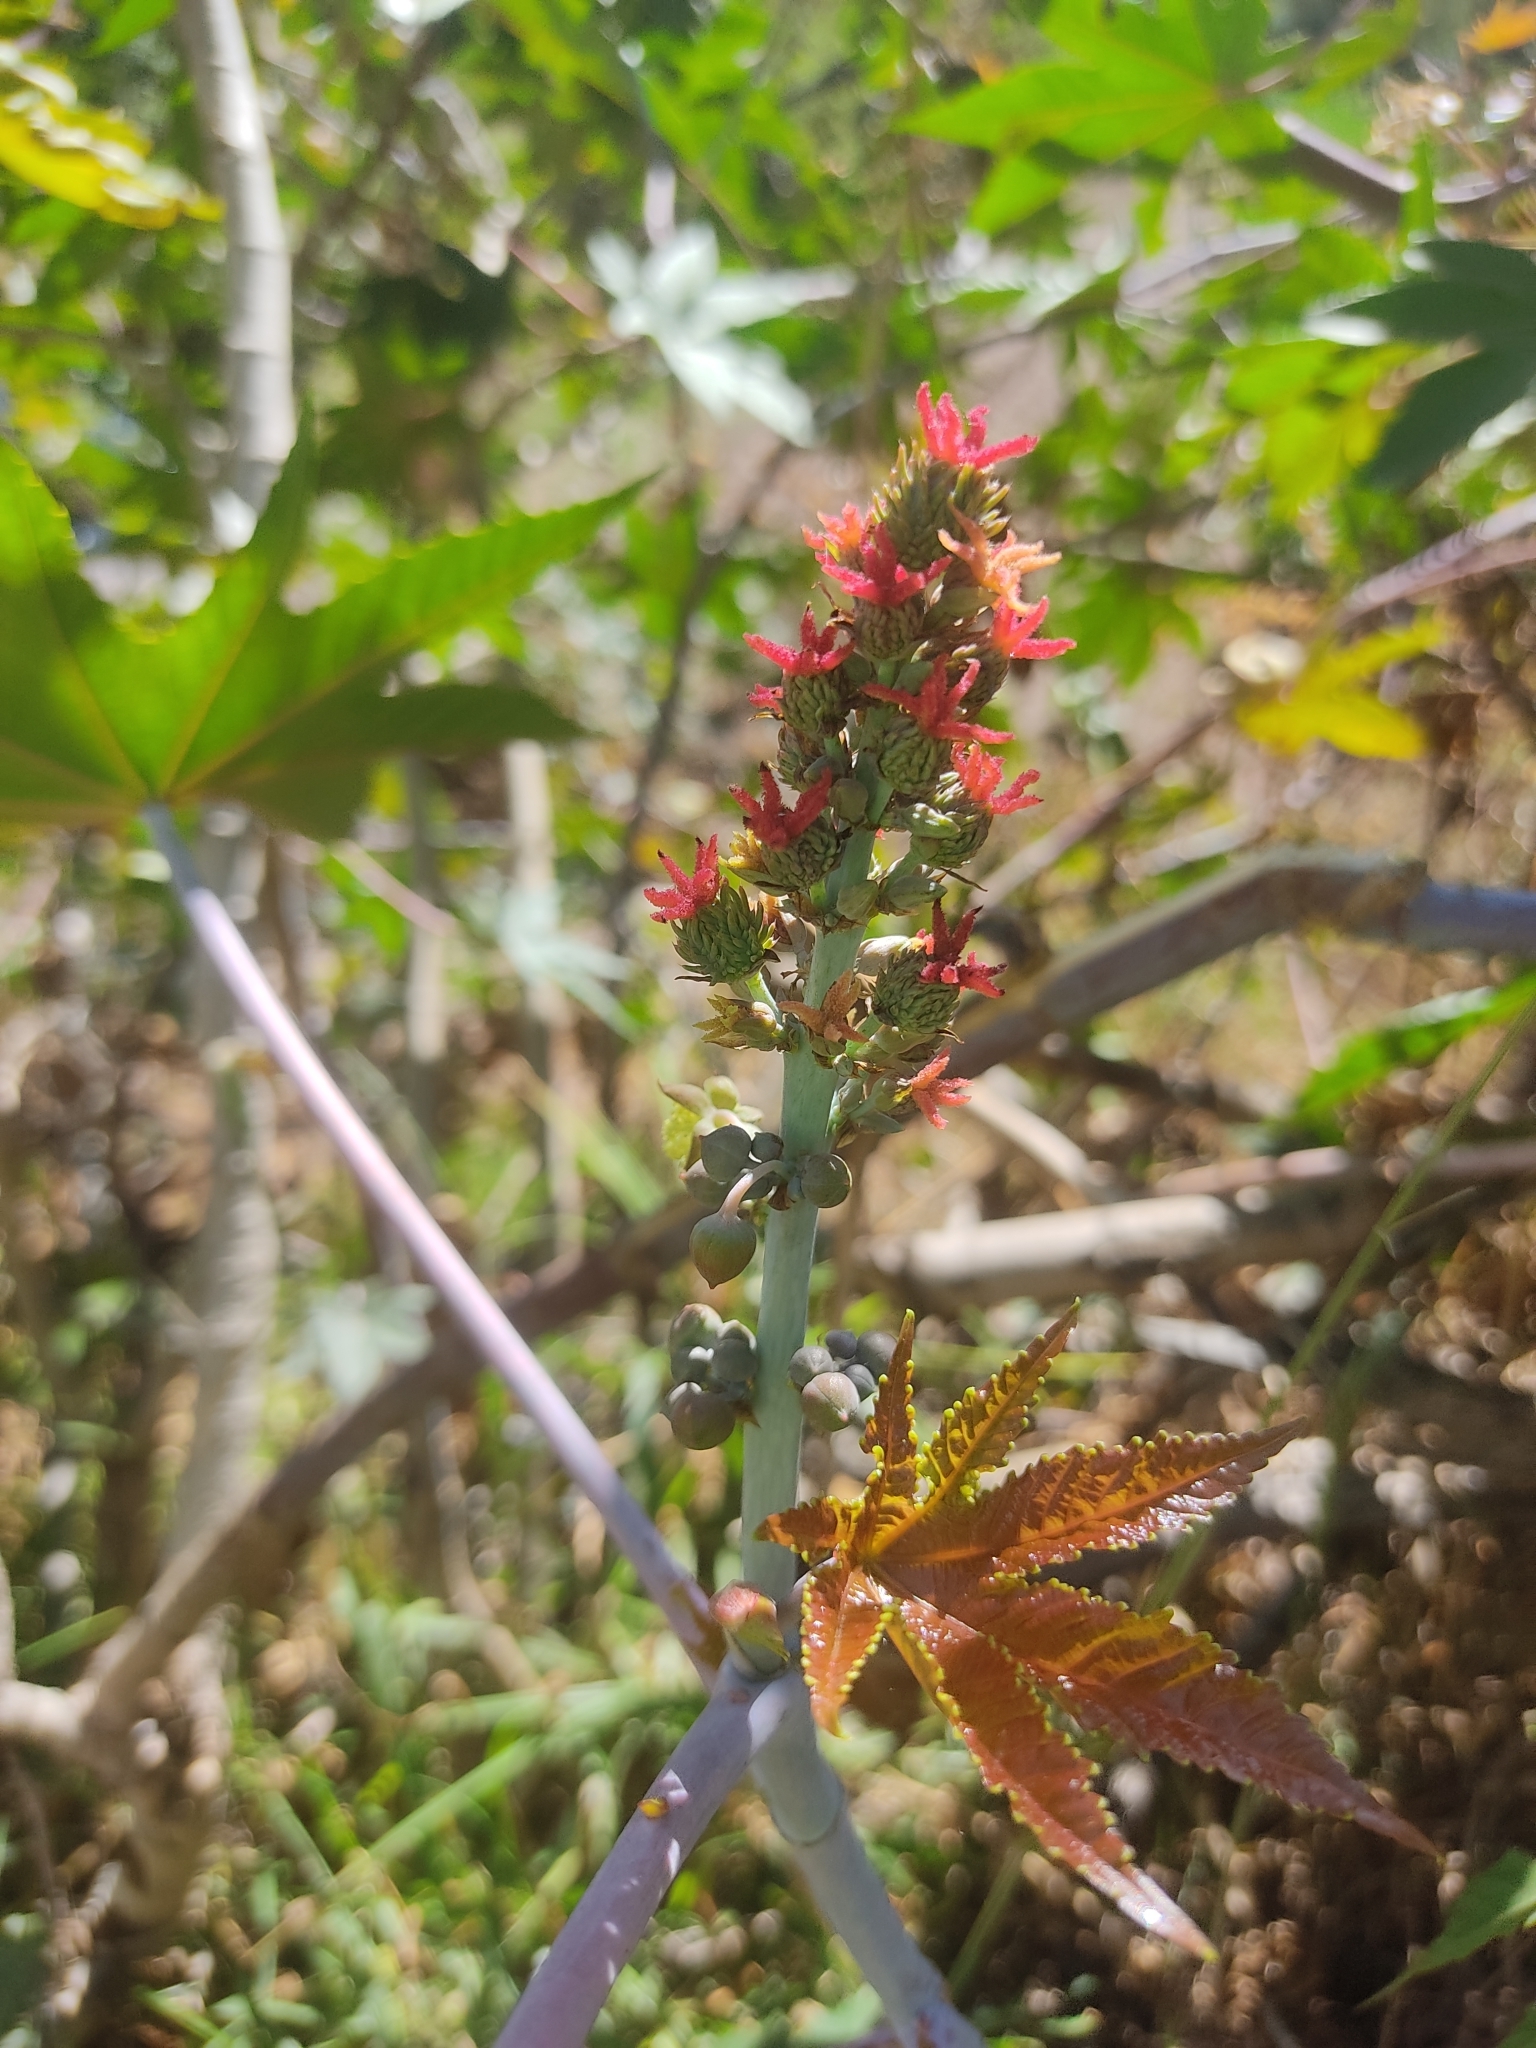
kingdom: Plantae
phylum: Tracheophyta
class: Magnoliopsida
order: Malpighiales
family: Euphorbiaceae
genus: Ricinus
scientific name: Ricinus communis
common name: Castor-oil-plant
